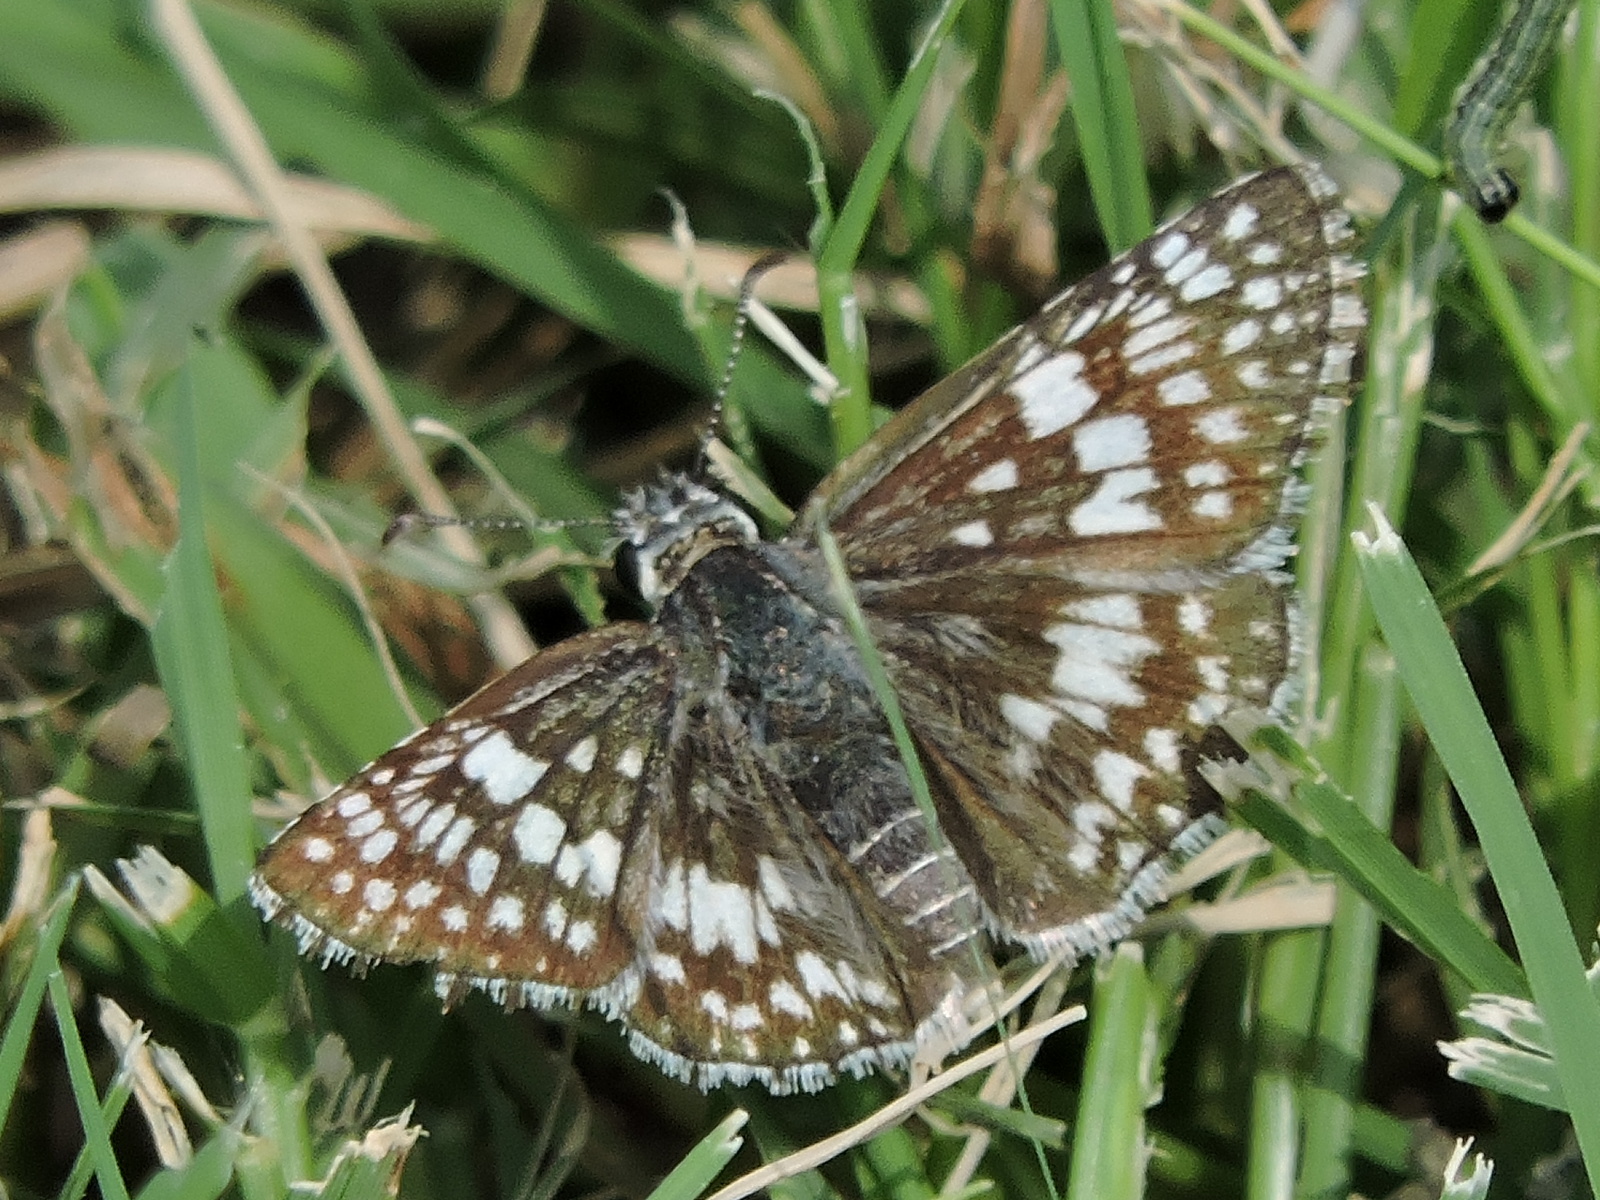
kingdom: Animalia
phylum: Arthropoda
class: Insecta
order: Lepidoptera
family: Hesperiidae
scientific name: Hesperiidae
